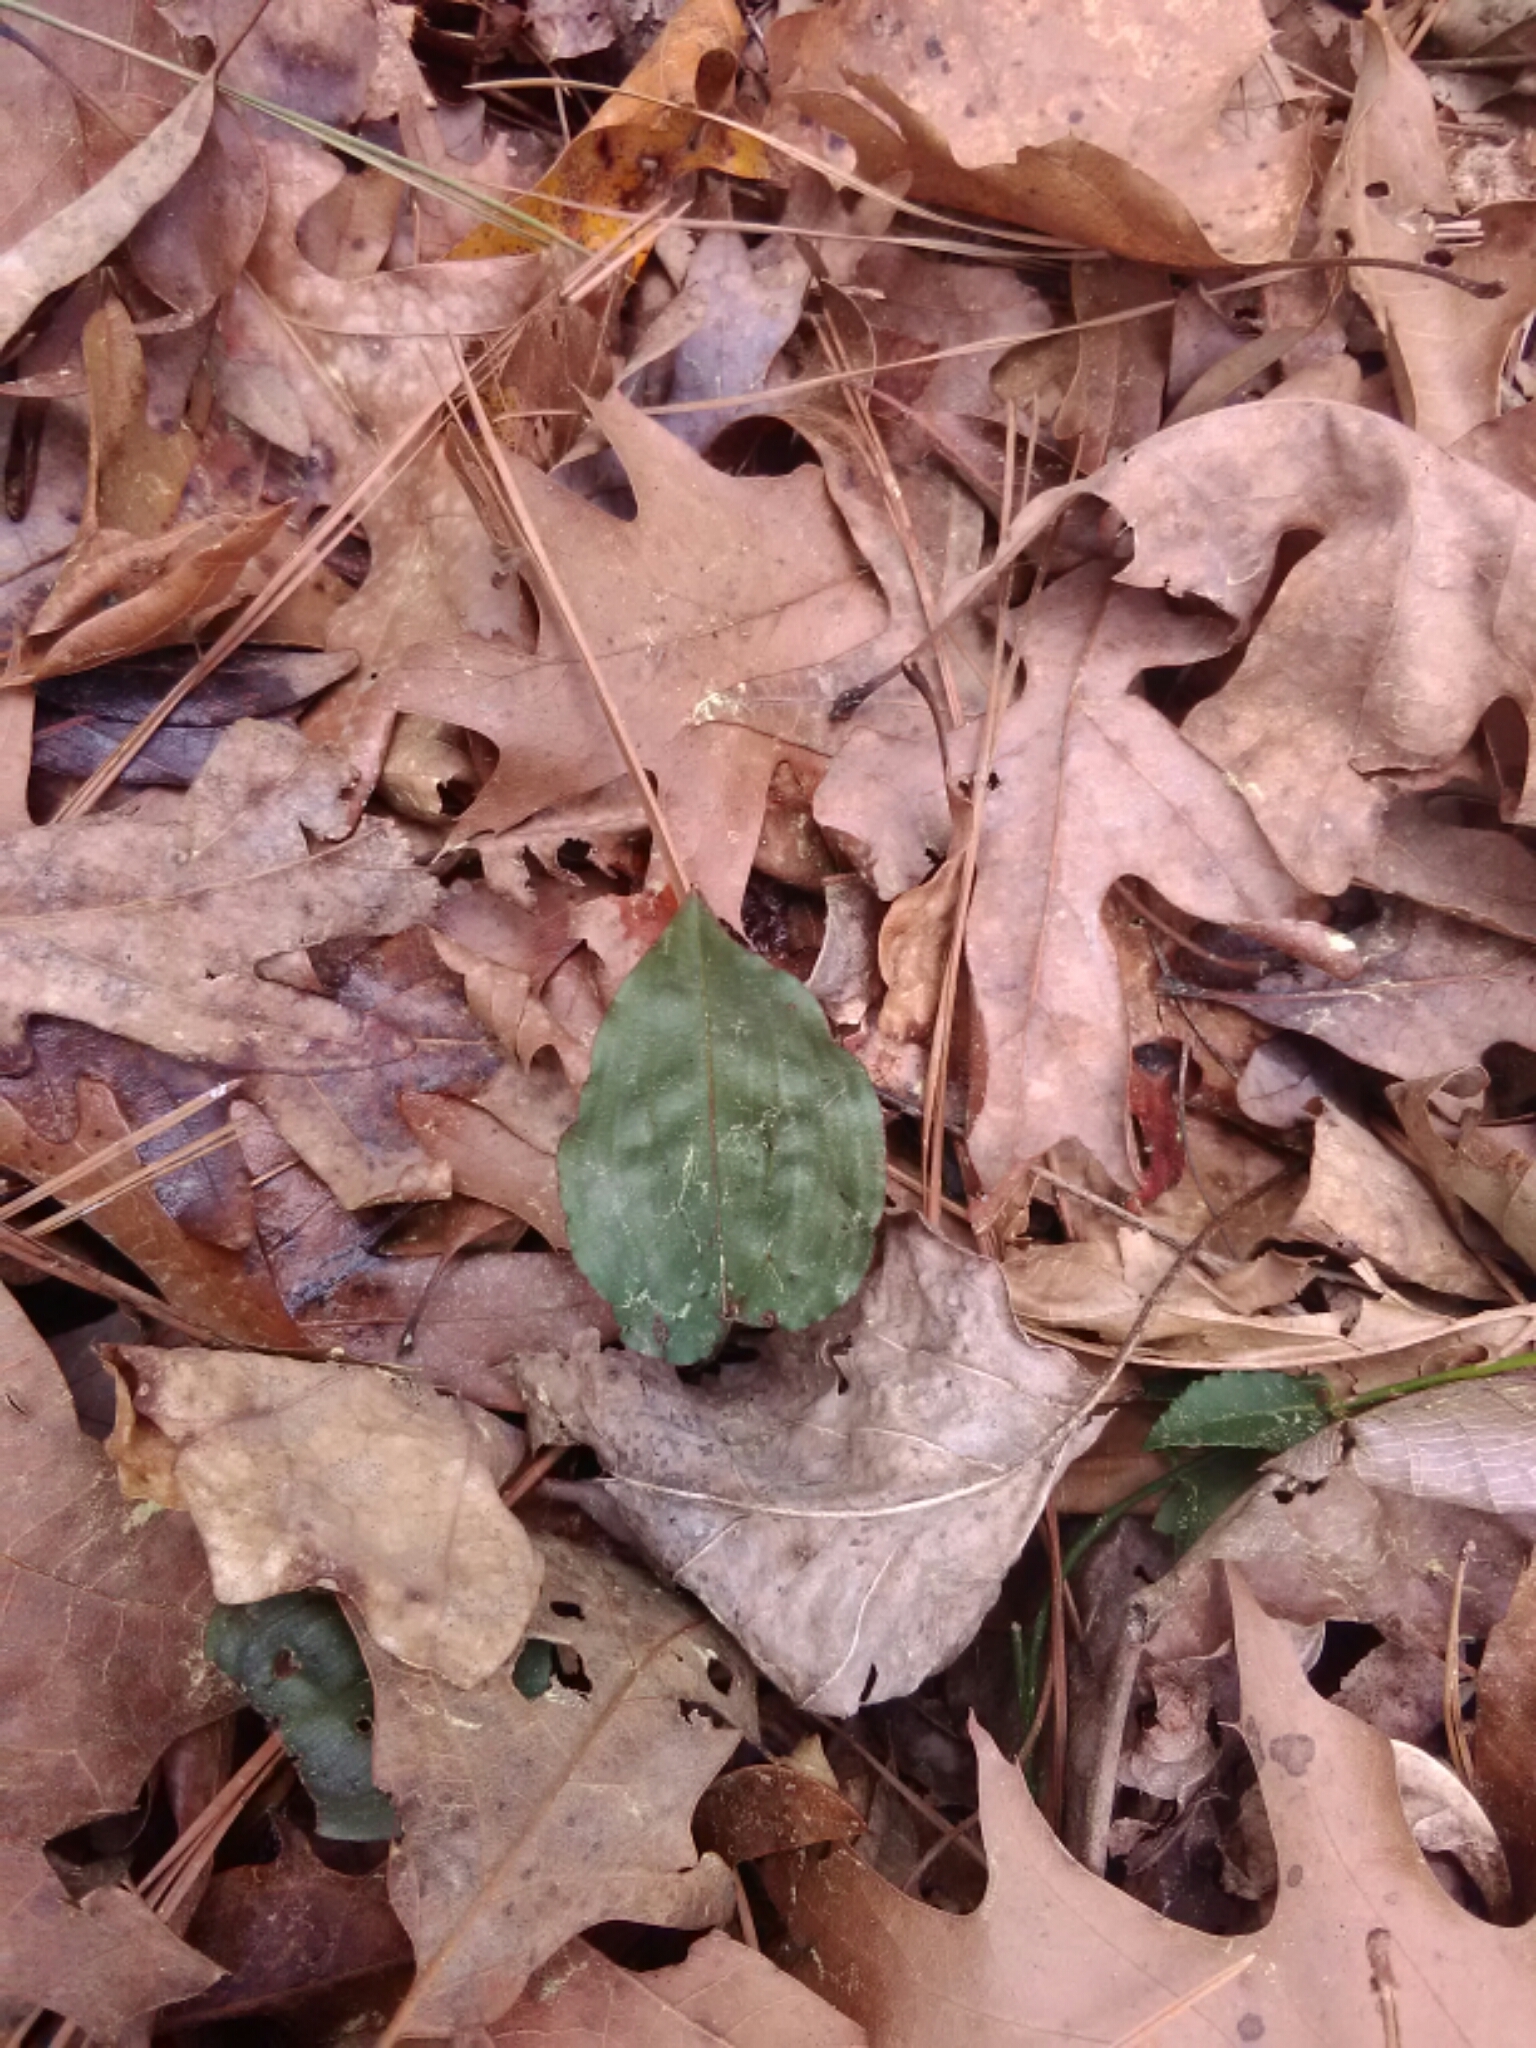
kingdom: Plantae
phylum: Tracheophyta
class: Liliopsida
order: Asparagales
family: Orchidaceae
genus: Tipularia
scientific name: Tipularia discolor
